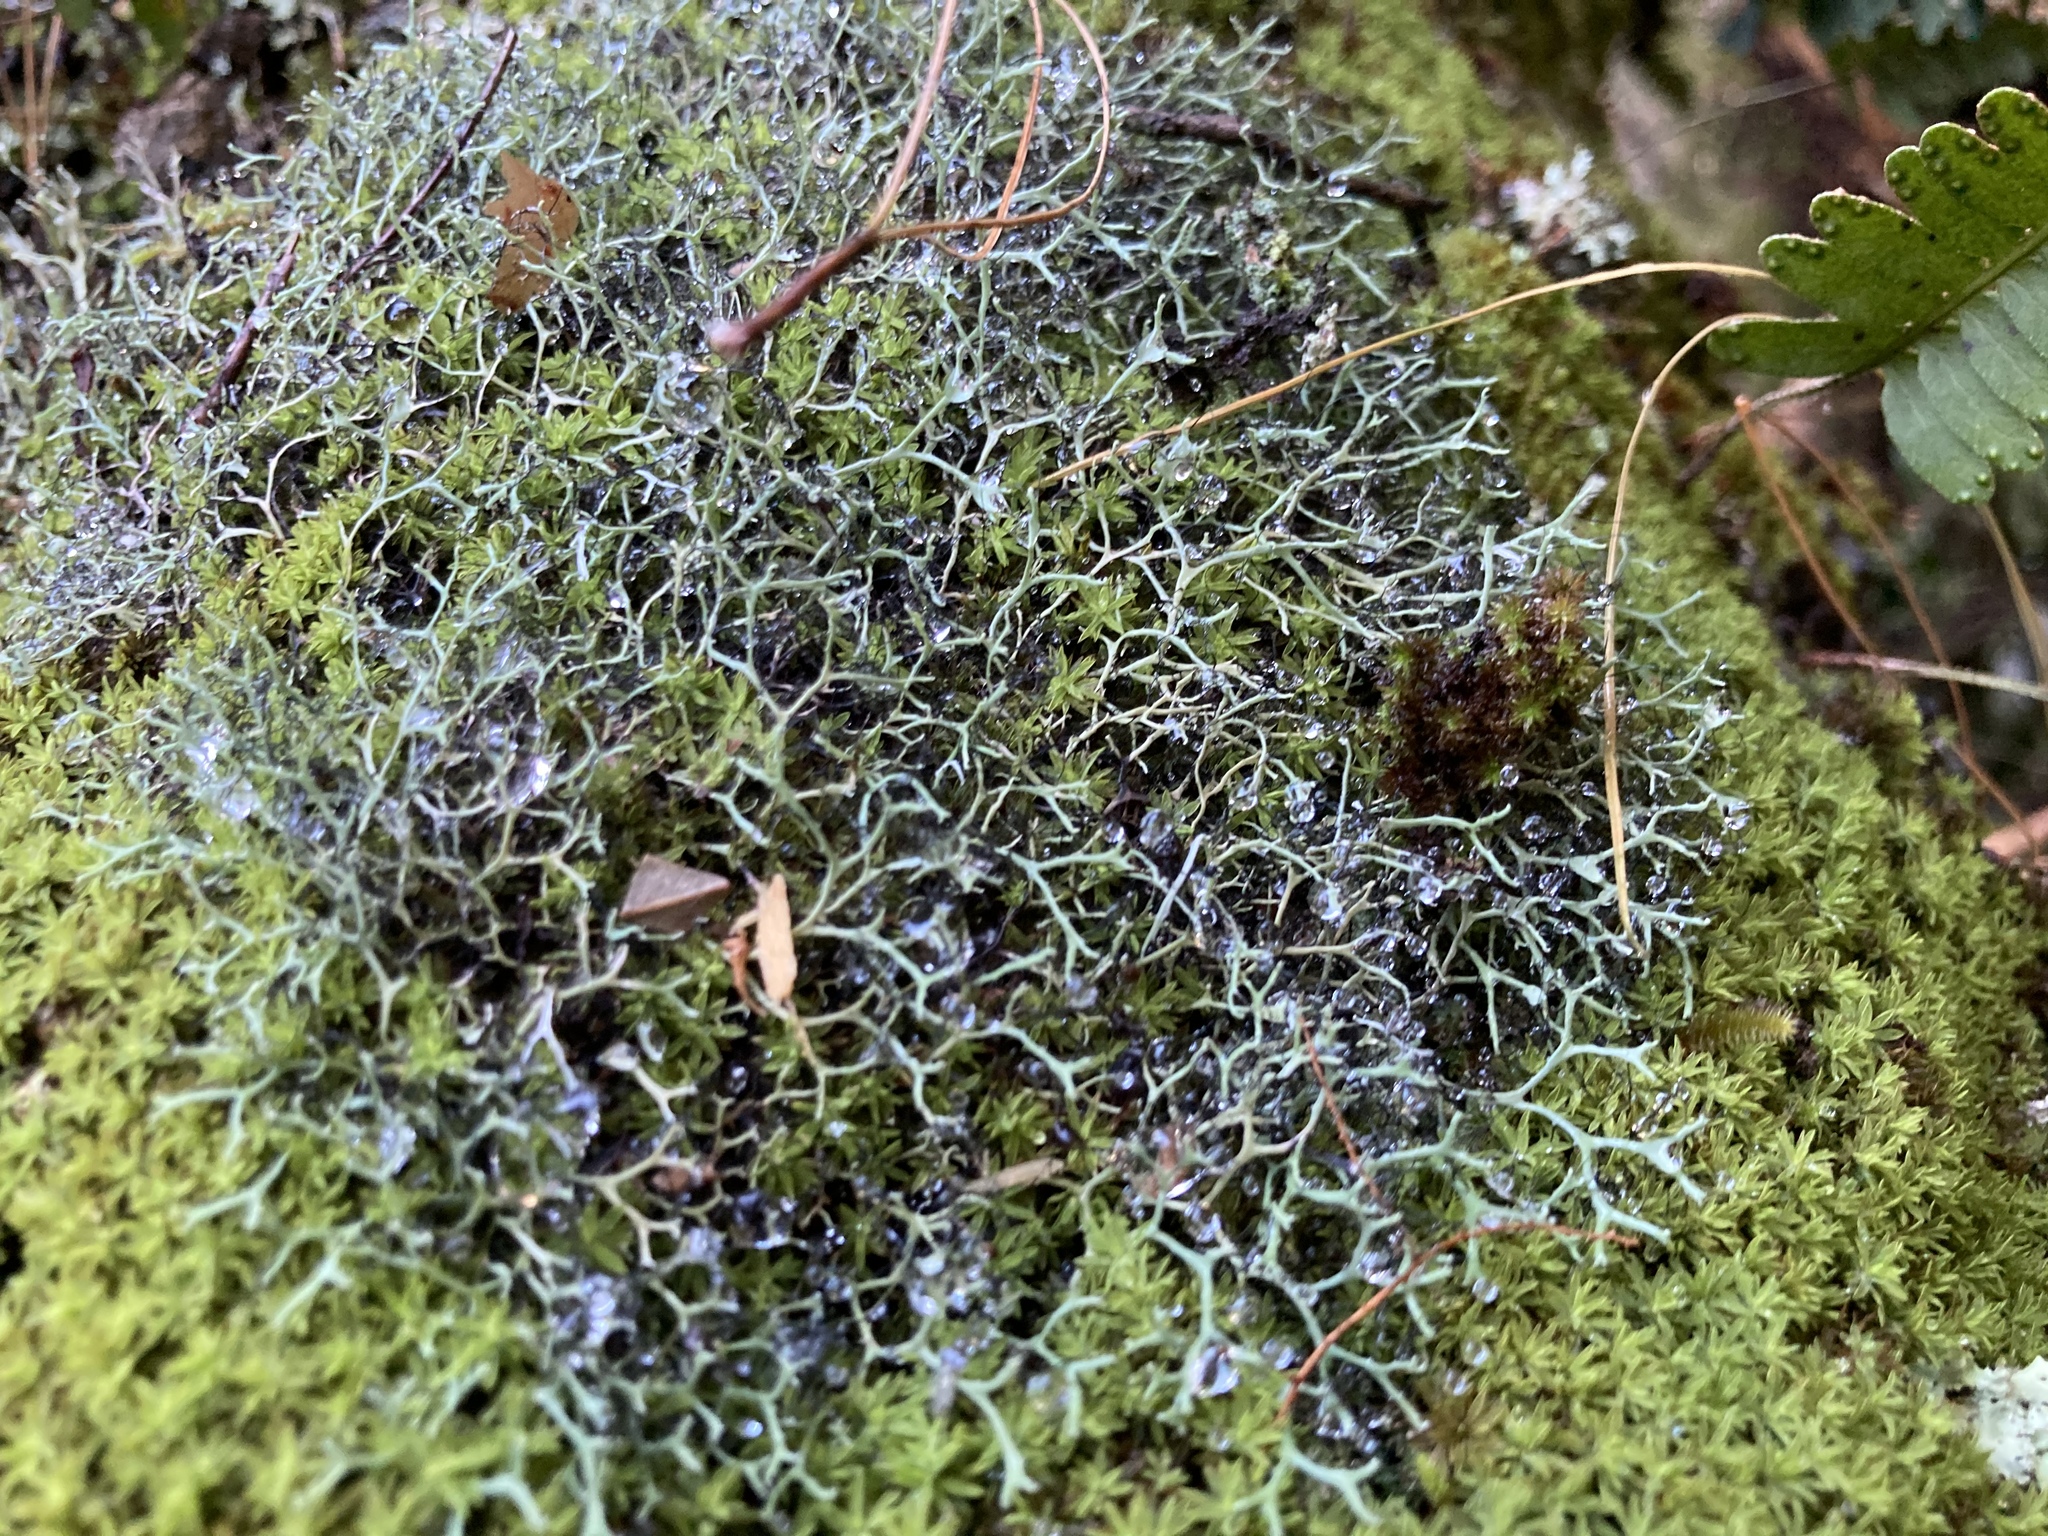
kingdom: Fungi
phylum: Ascomycota
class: Lecanoromycetes
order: Caliciales
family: Physciaceae
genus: Leucodermia
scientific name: Leucodermia leucomelos
